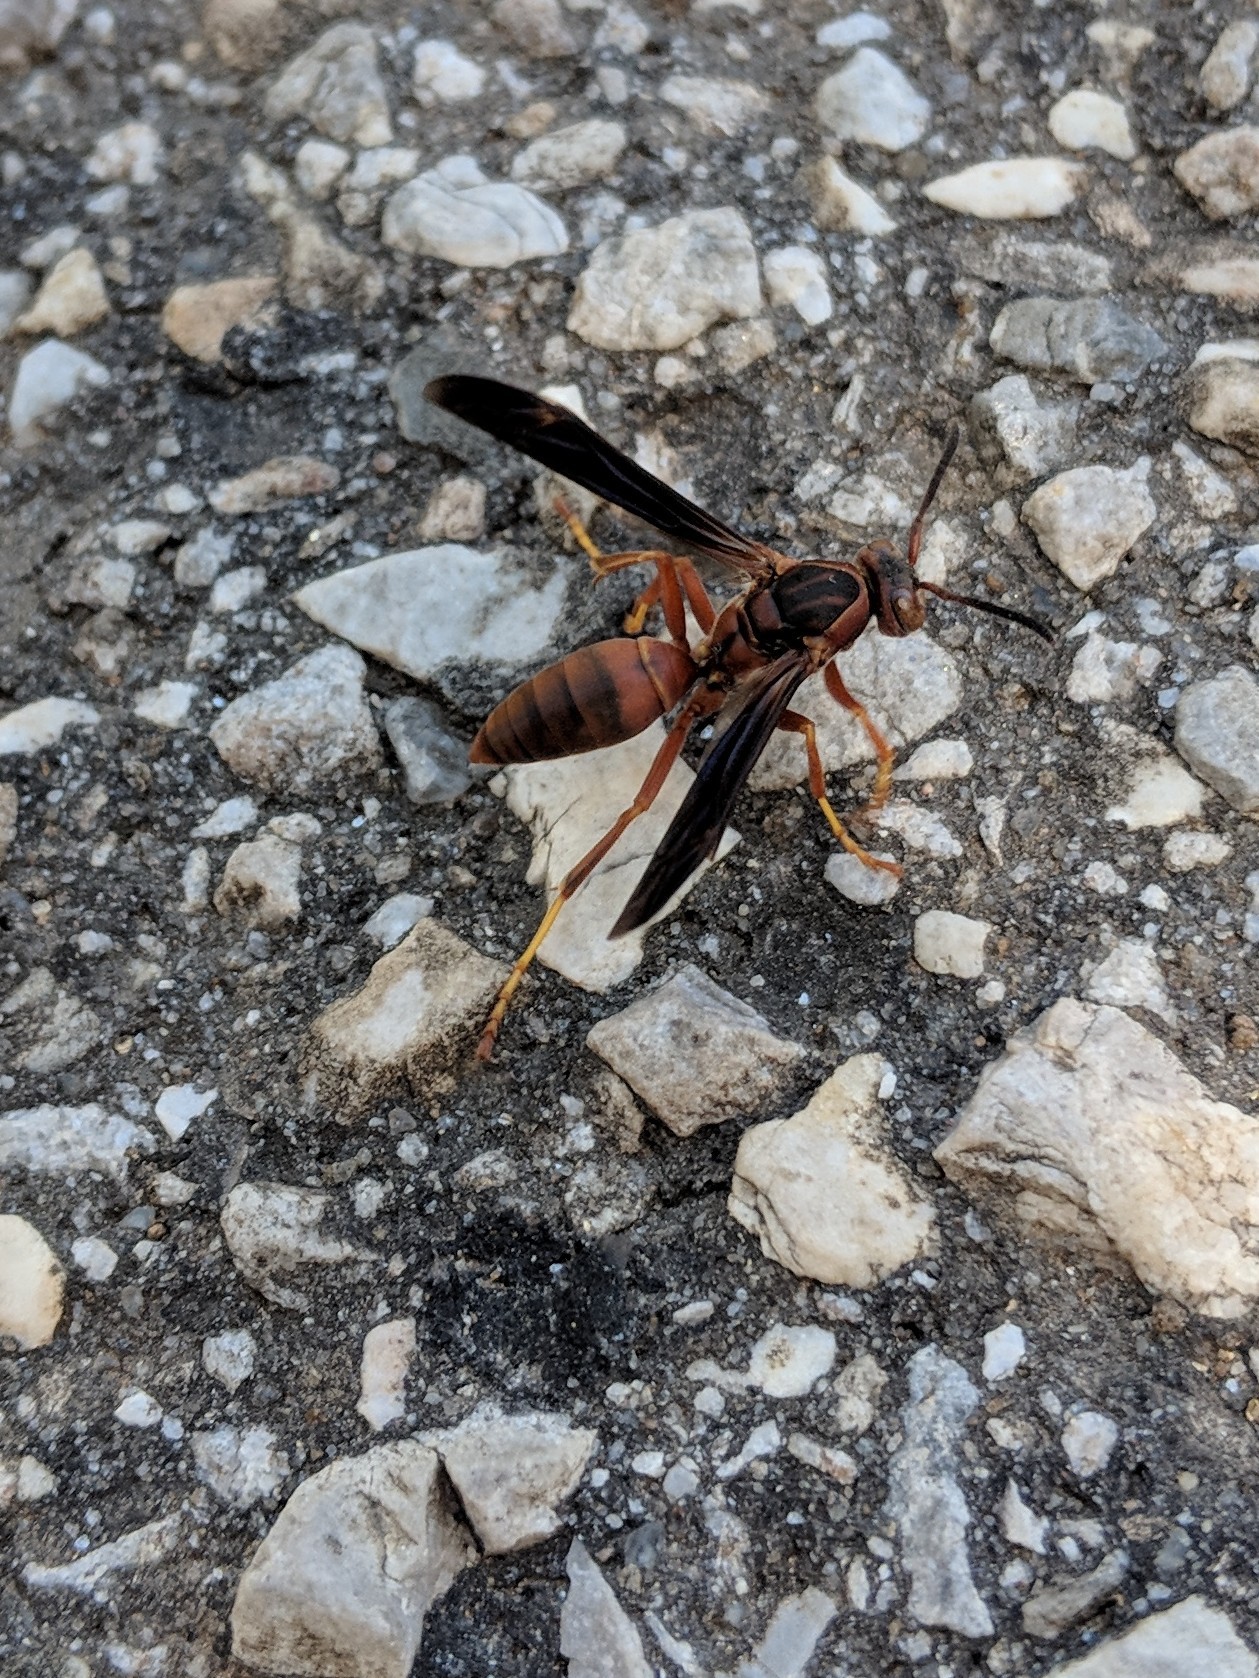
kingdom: Animalia
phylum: Arthropoda
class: Insecta
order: Hymenoptera
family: Eumenidae
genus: Polistes
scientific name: Polistes fuscatus
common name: Dark paper wasp
